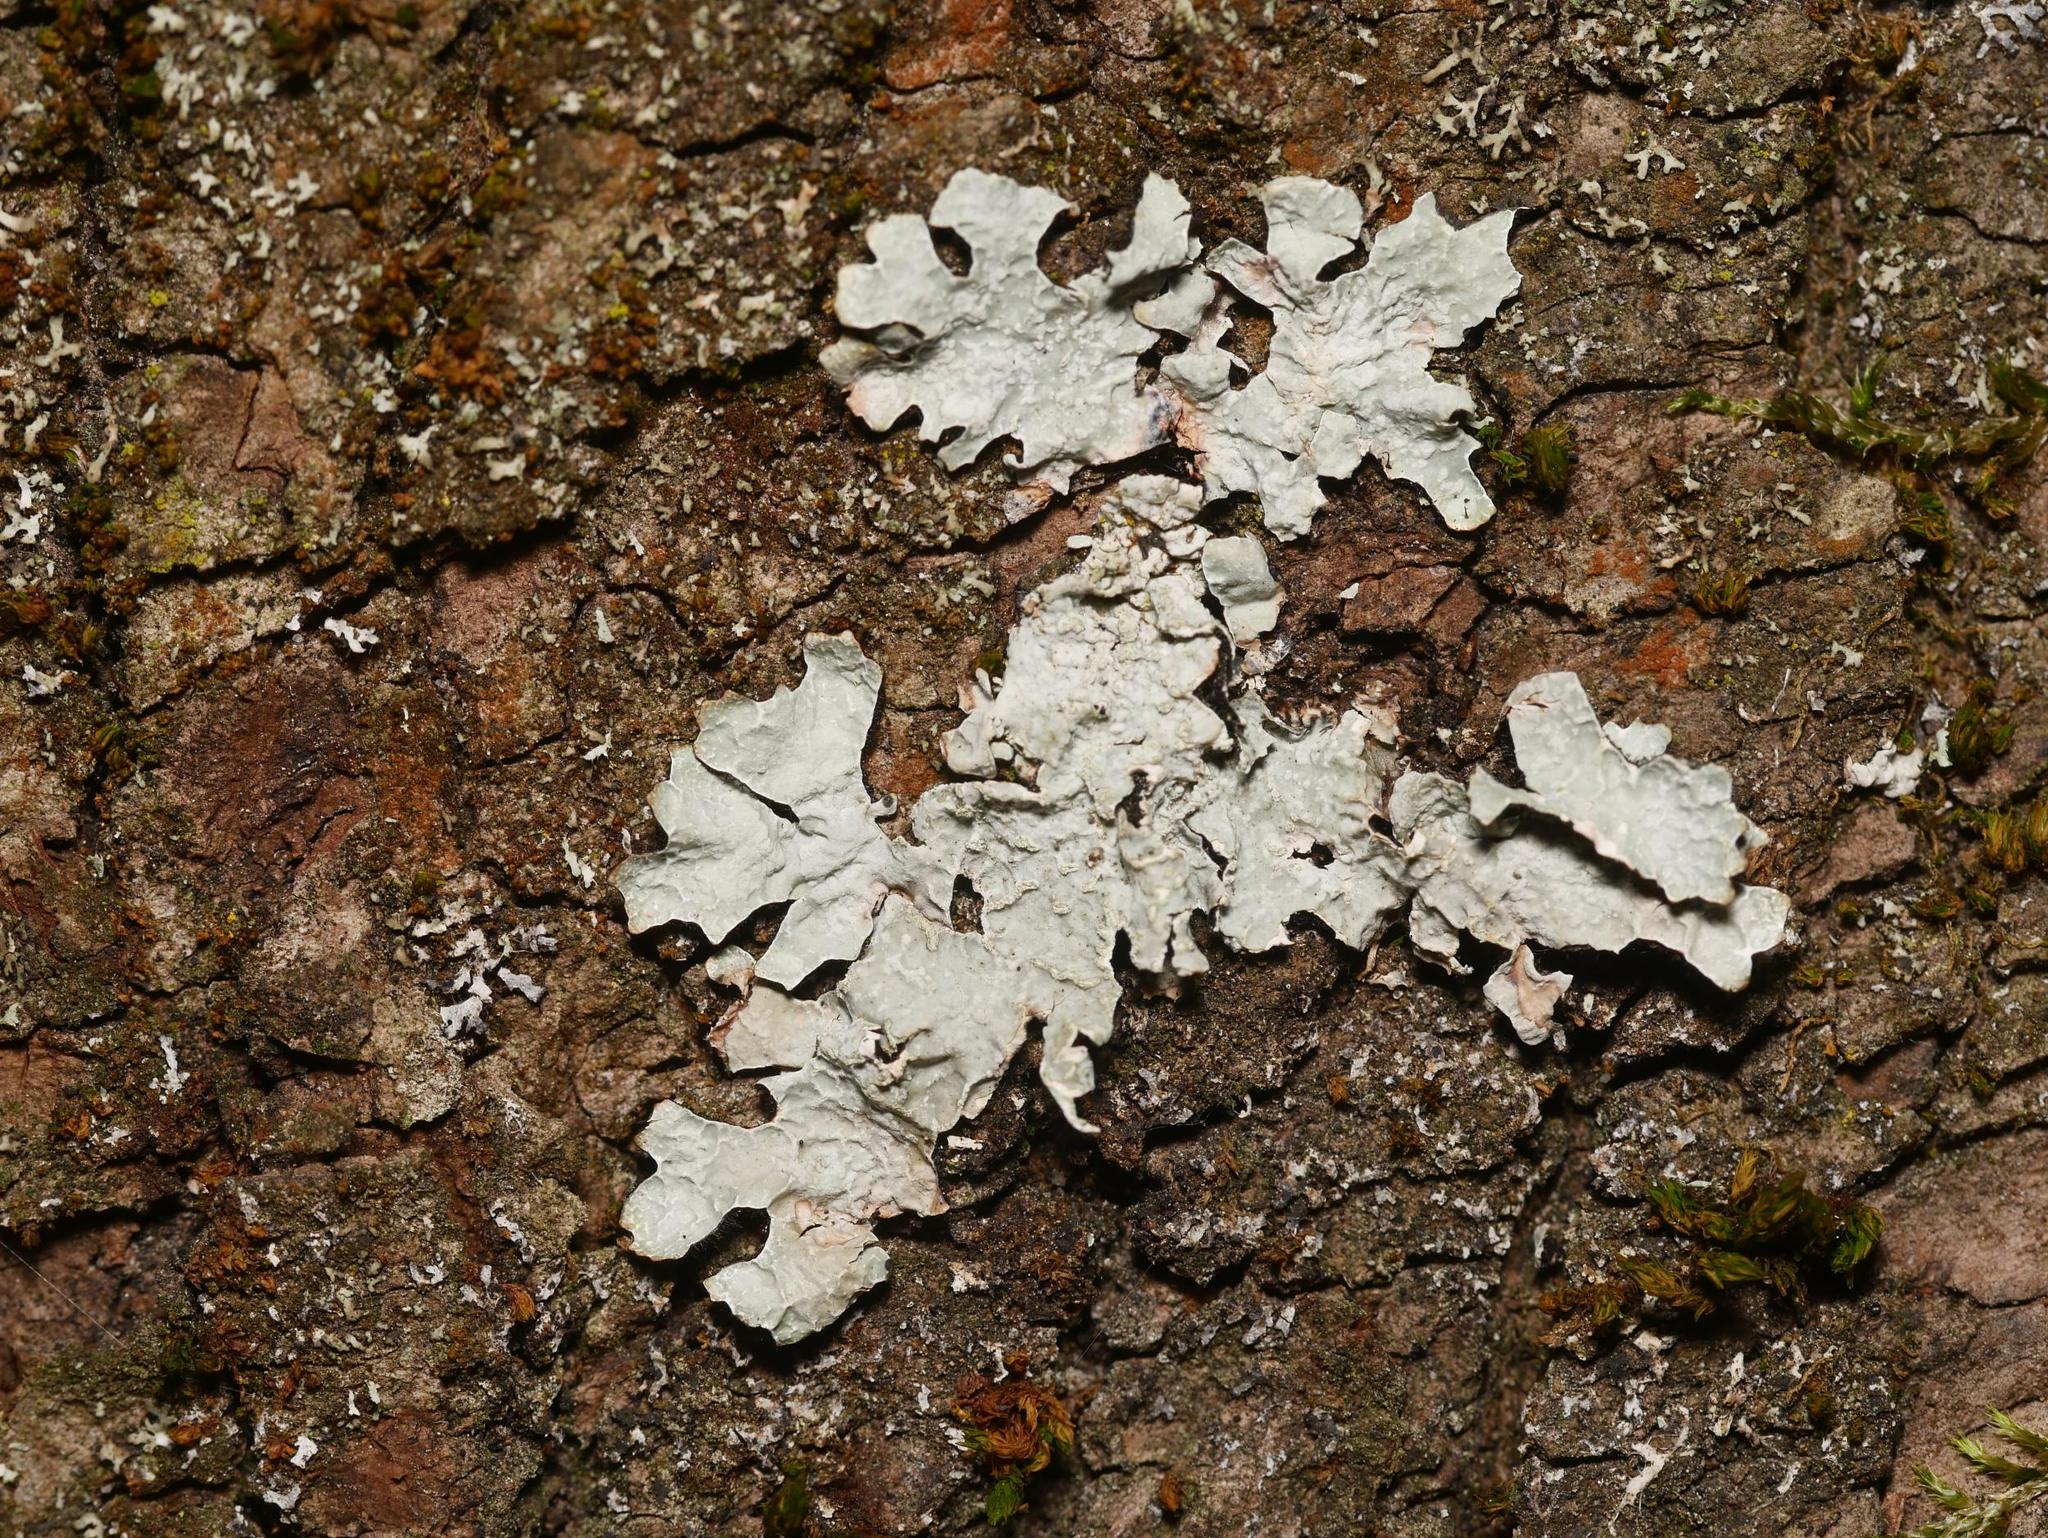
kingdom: Fungi
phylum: Ascomycota
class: Lecanoromycetes
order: Lecanorales
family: Parmeliaceae
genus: Parmelia
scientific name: Parmelia sulcata
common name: Netted shield lichen
